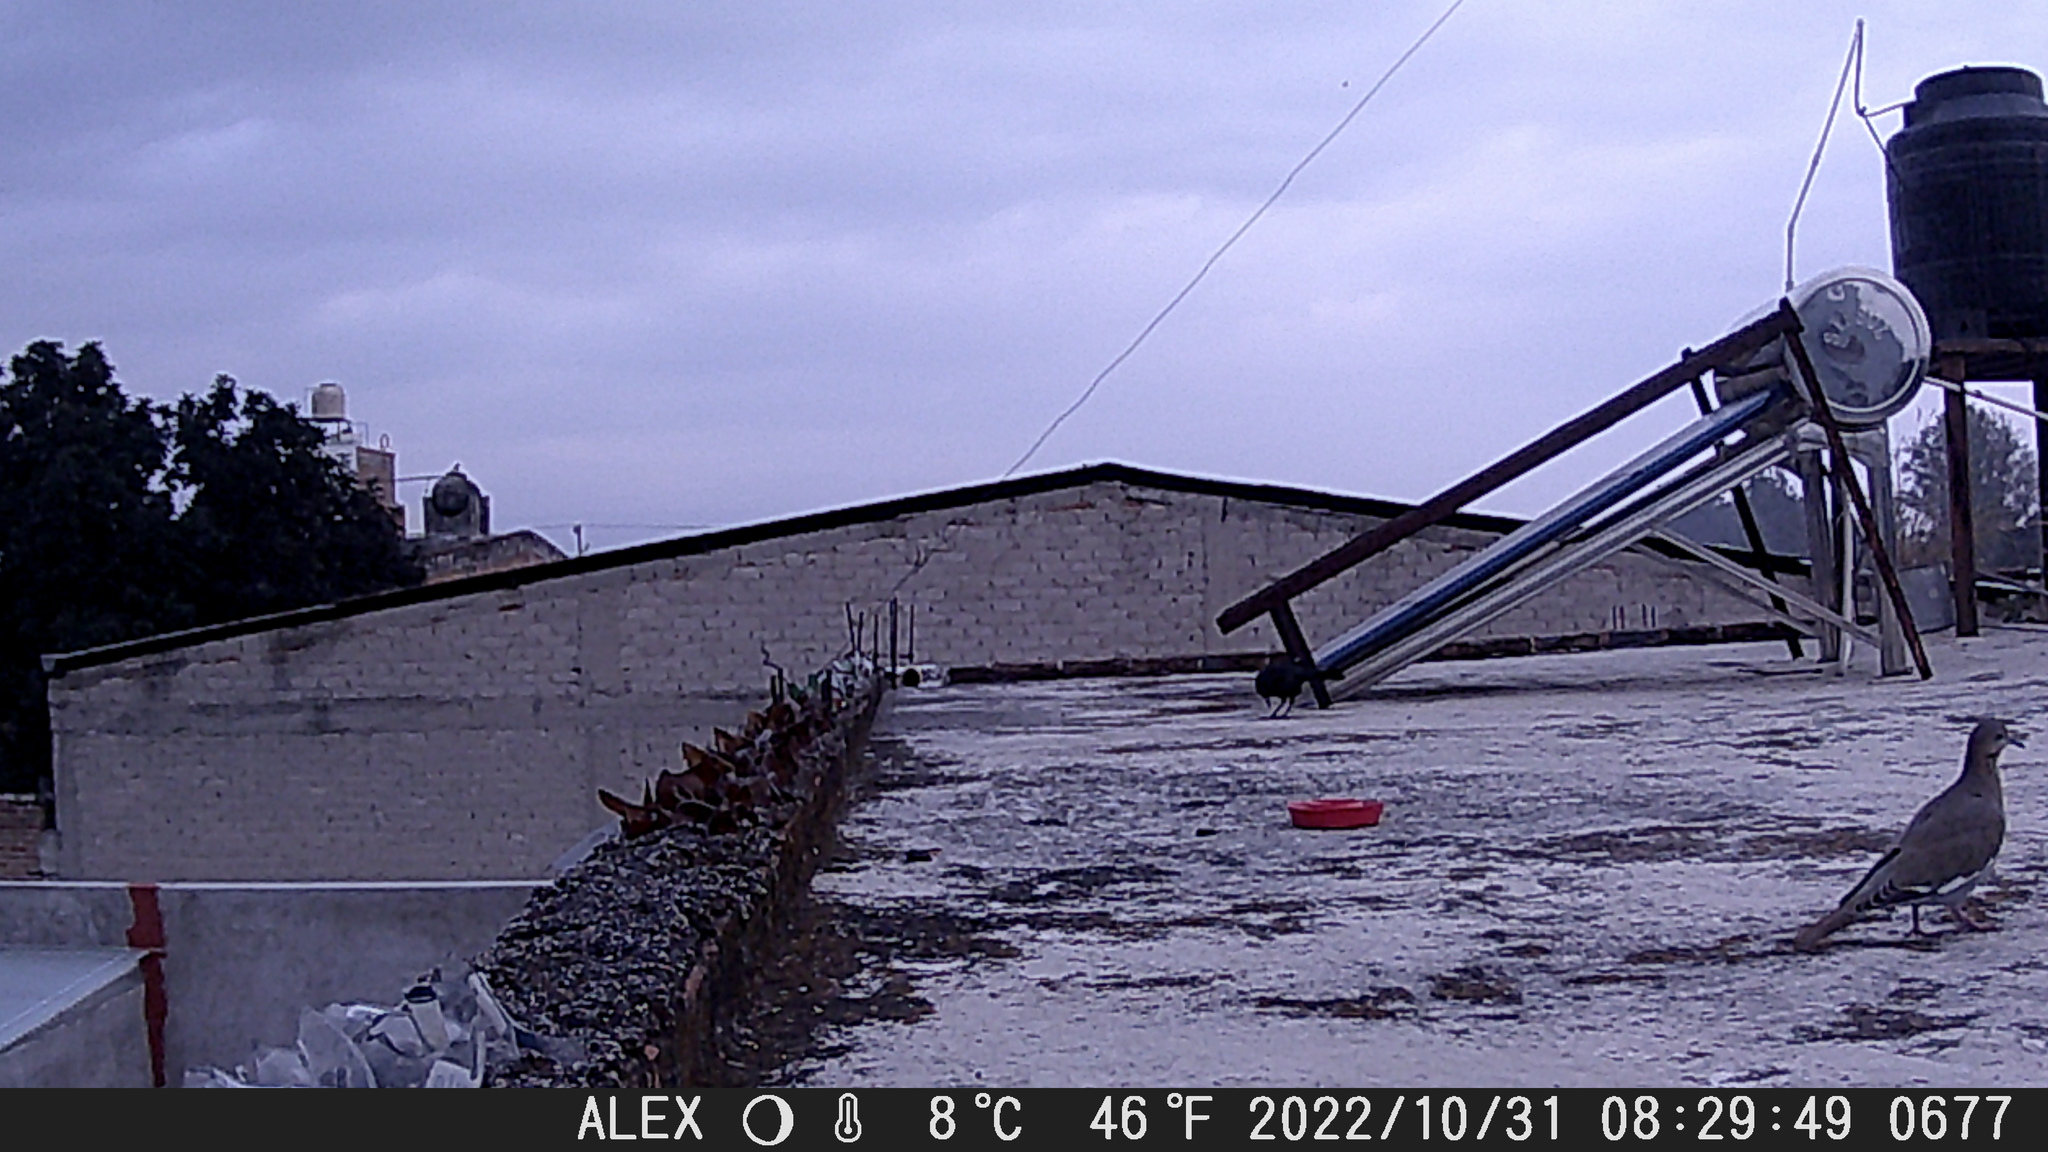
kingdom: Animalia
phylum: Chordata
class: Aves
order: Columbiformes
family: Columbidae
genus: Zenaida
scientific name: Zenaida asiatica
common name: White-winged dove
